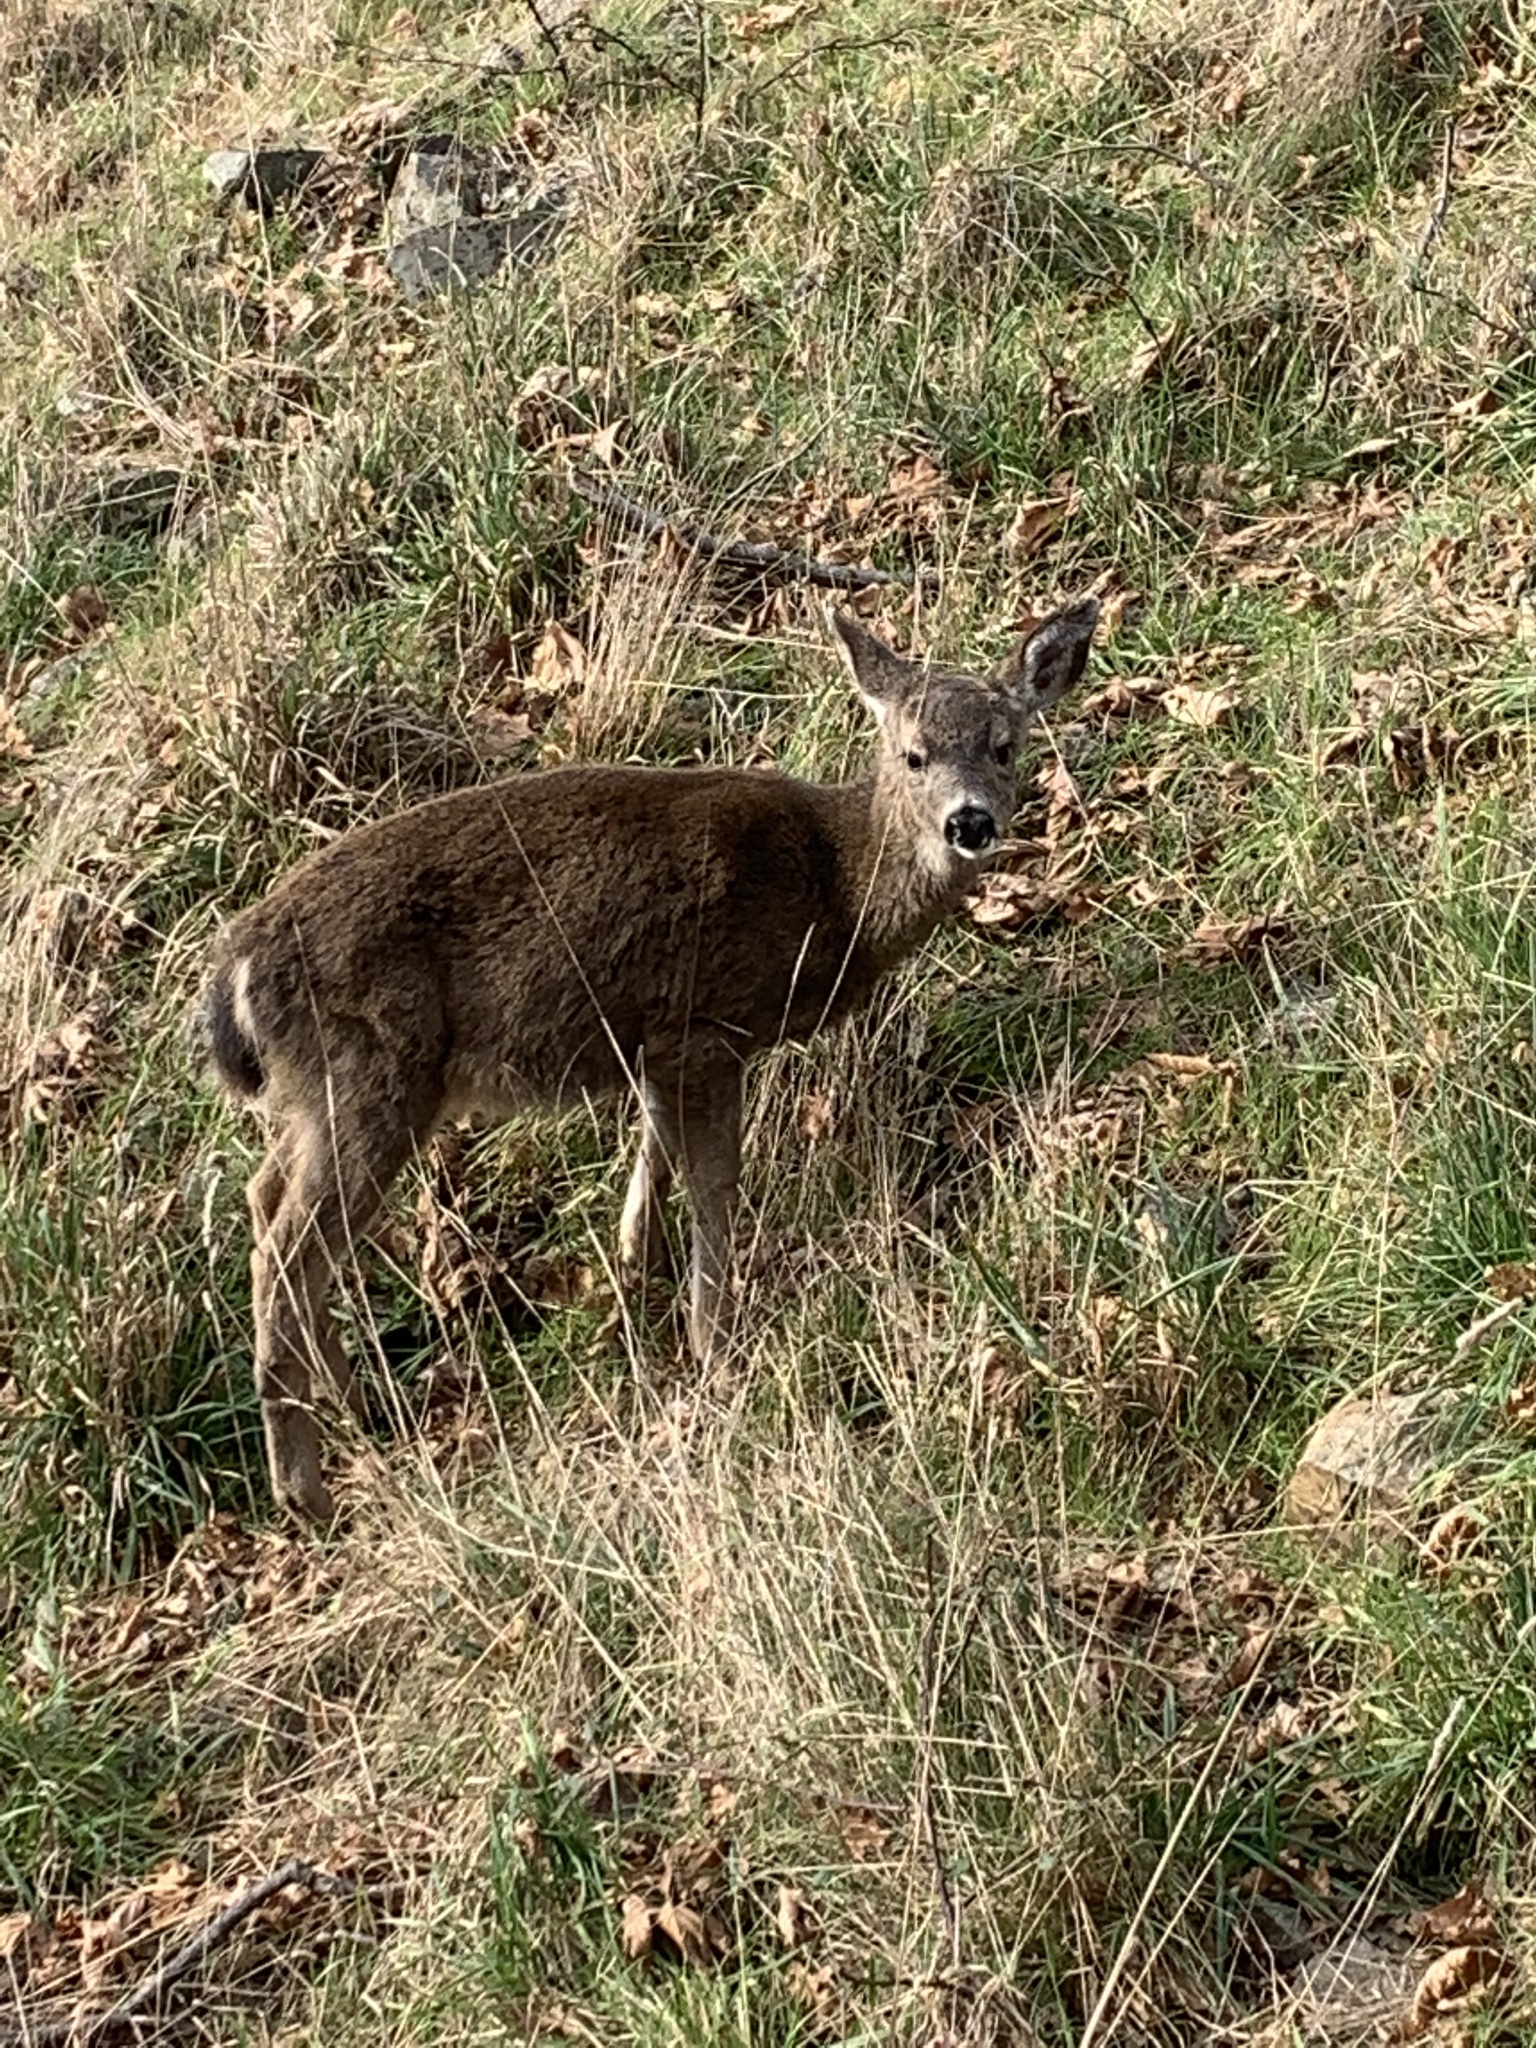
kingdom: Animalia
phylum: Chordata
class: Mammalia
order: Artiodactyla
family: Cervidae
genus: Odocoileus
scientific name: Odocoileus hemionus
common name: Mule deer
